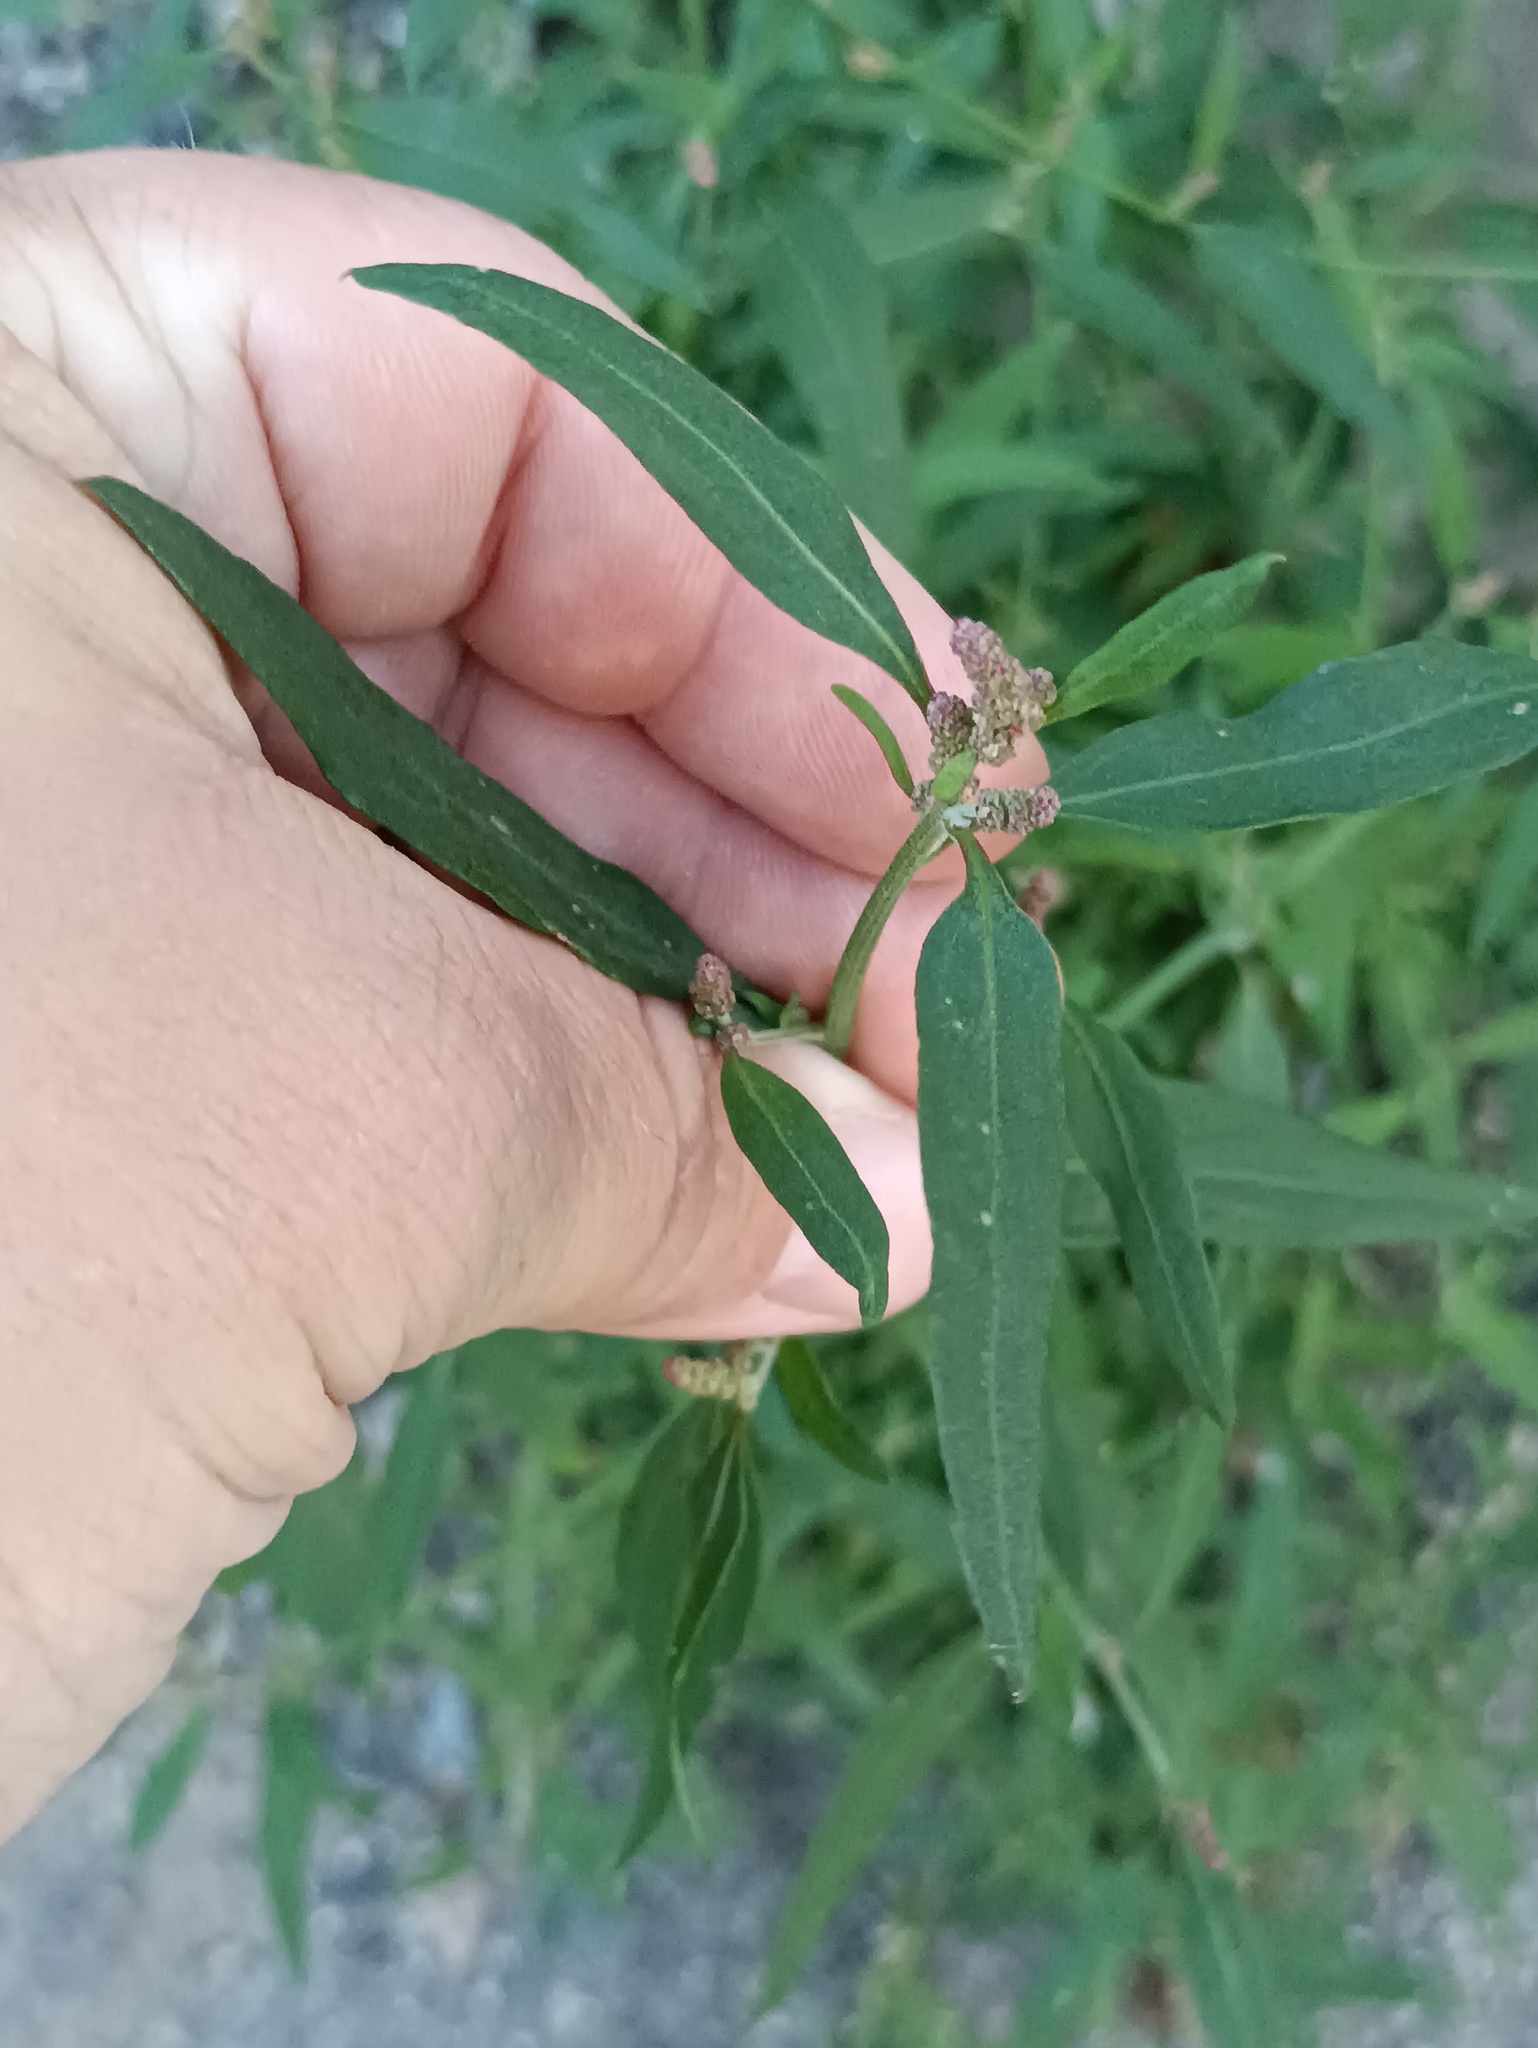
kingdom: Plantae
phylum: Tracheophyta
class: Magnoliopsida
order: Caryophyllales
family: Amaranthaceae
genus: Atriplex
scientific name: Atriplex patula
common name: Common orache
